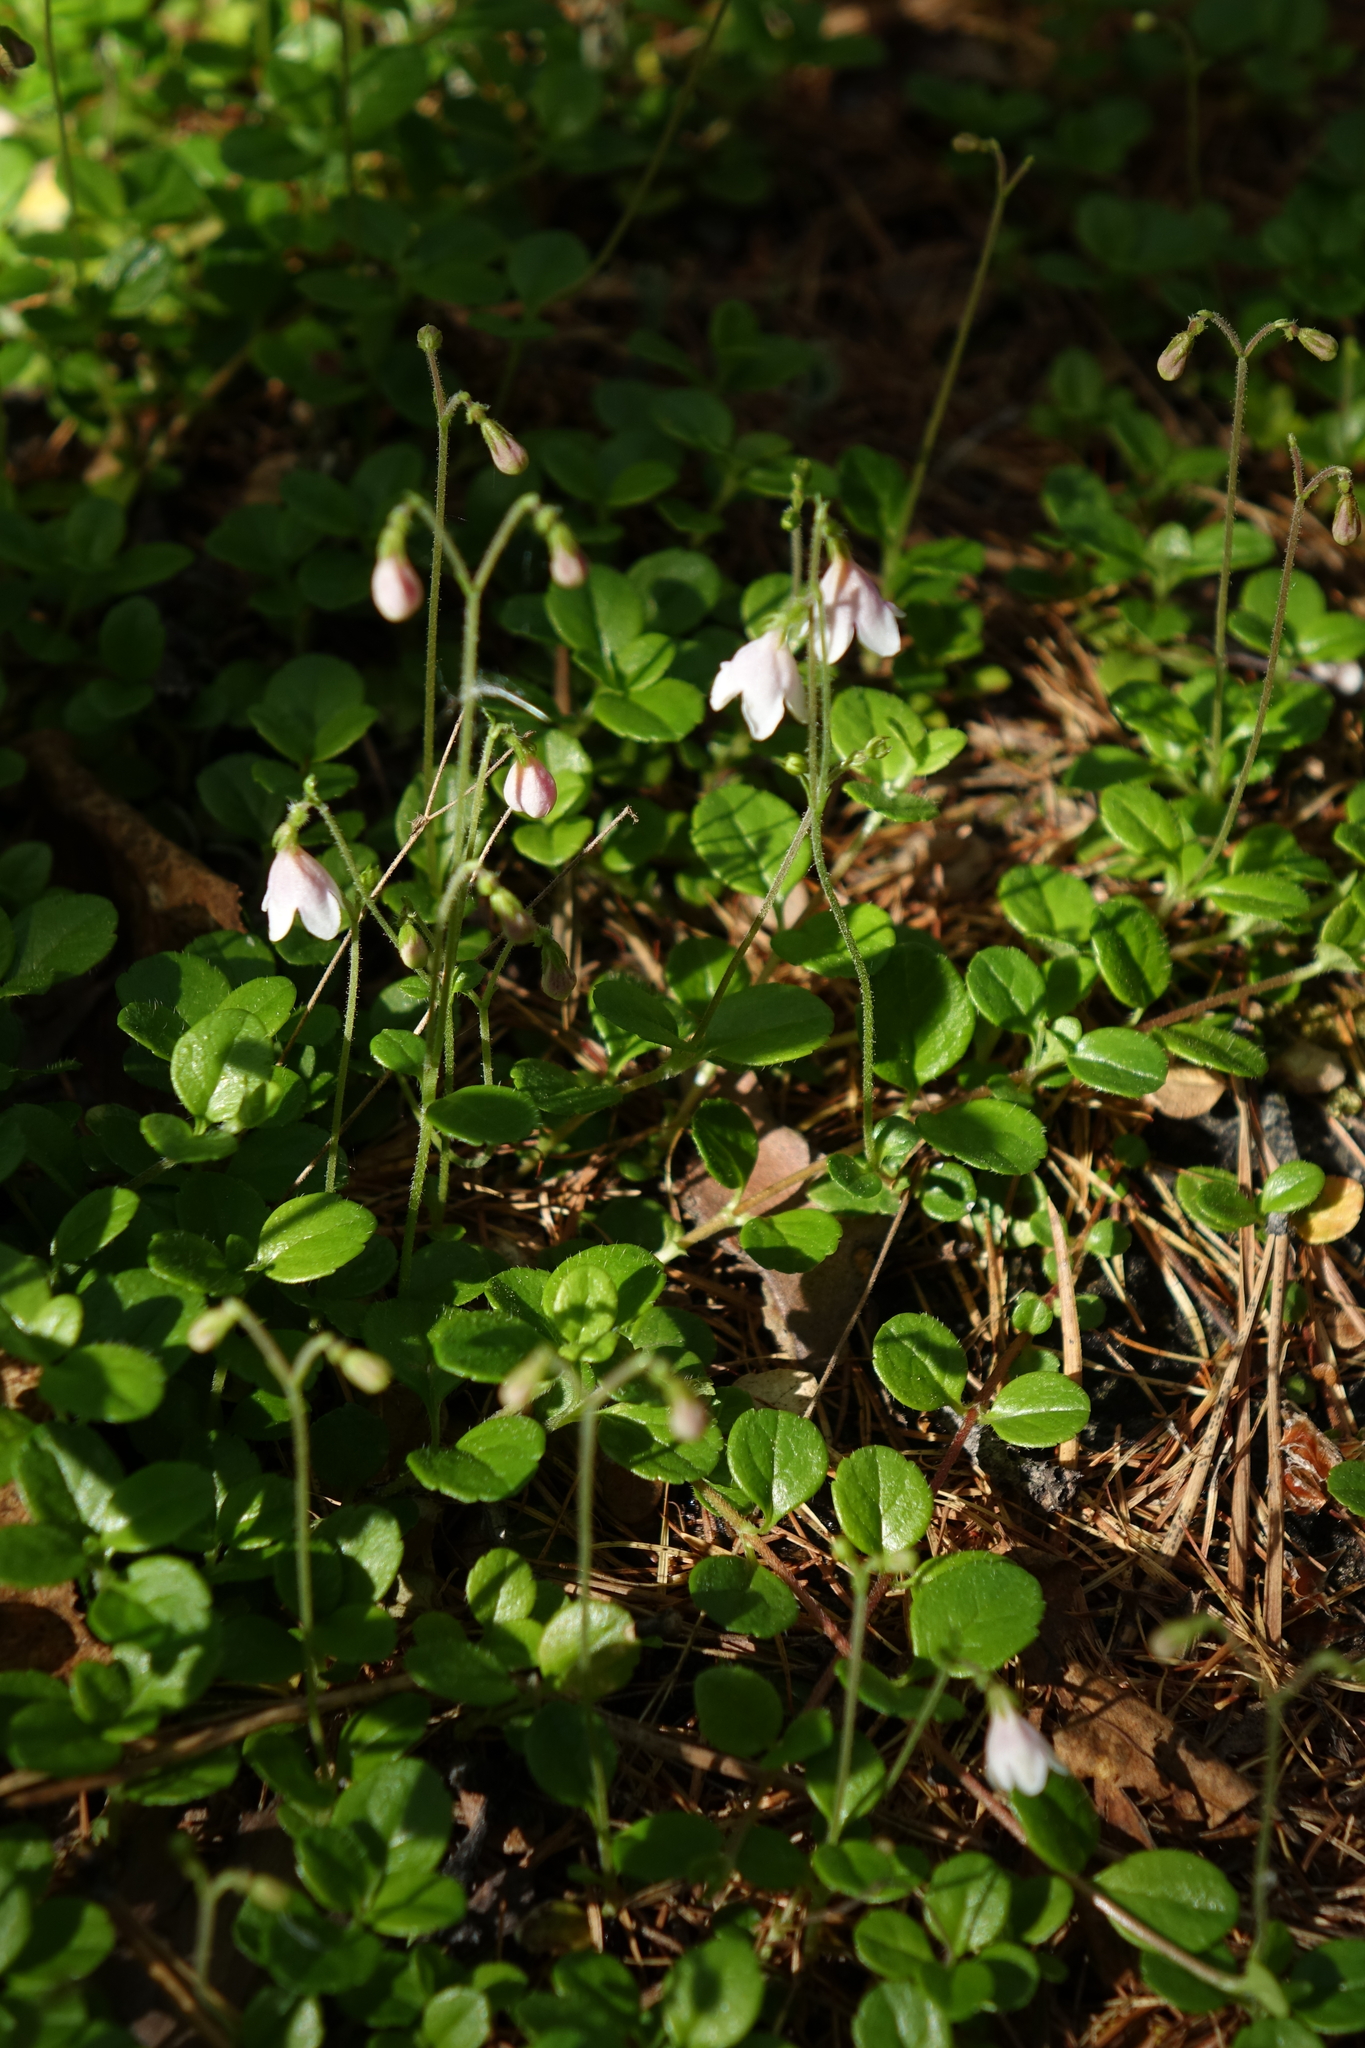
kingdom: Plantae
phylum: Tracheophyta
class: Magnoliopsida
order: Dipsacales
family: Caprifoliaceae
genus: Linnaea
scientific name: Linnaea borealis
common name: Twinflower
